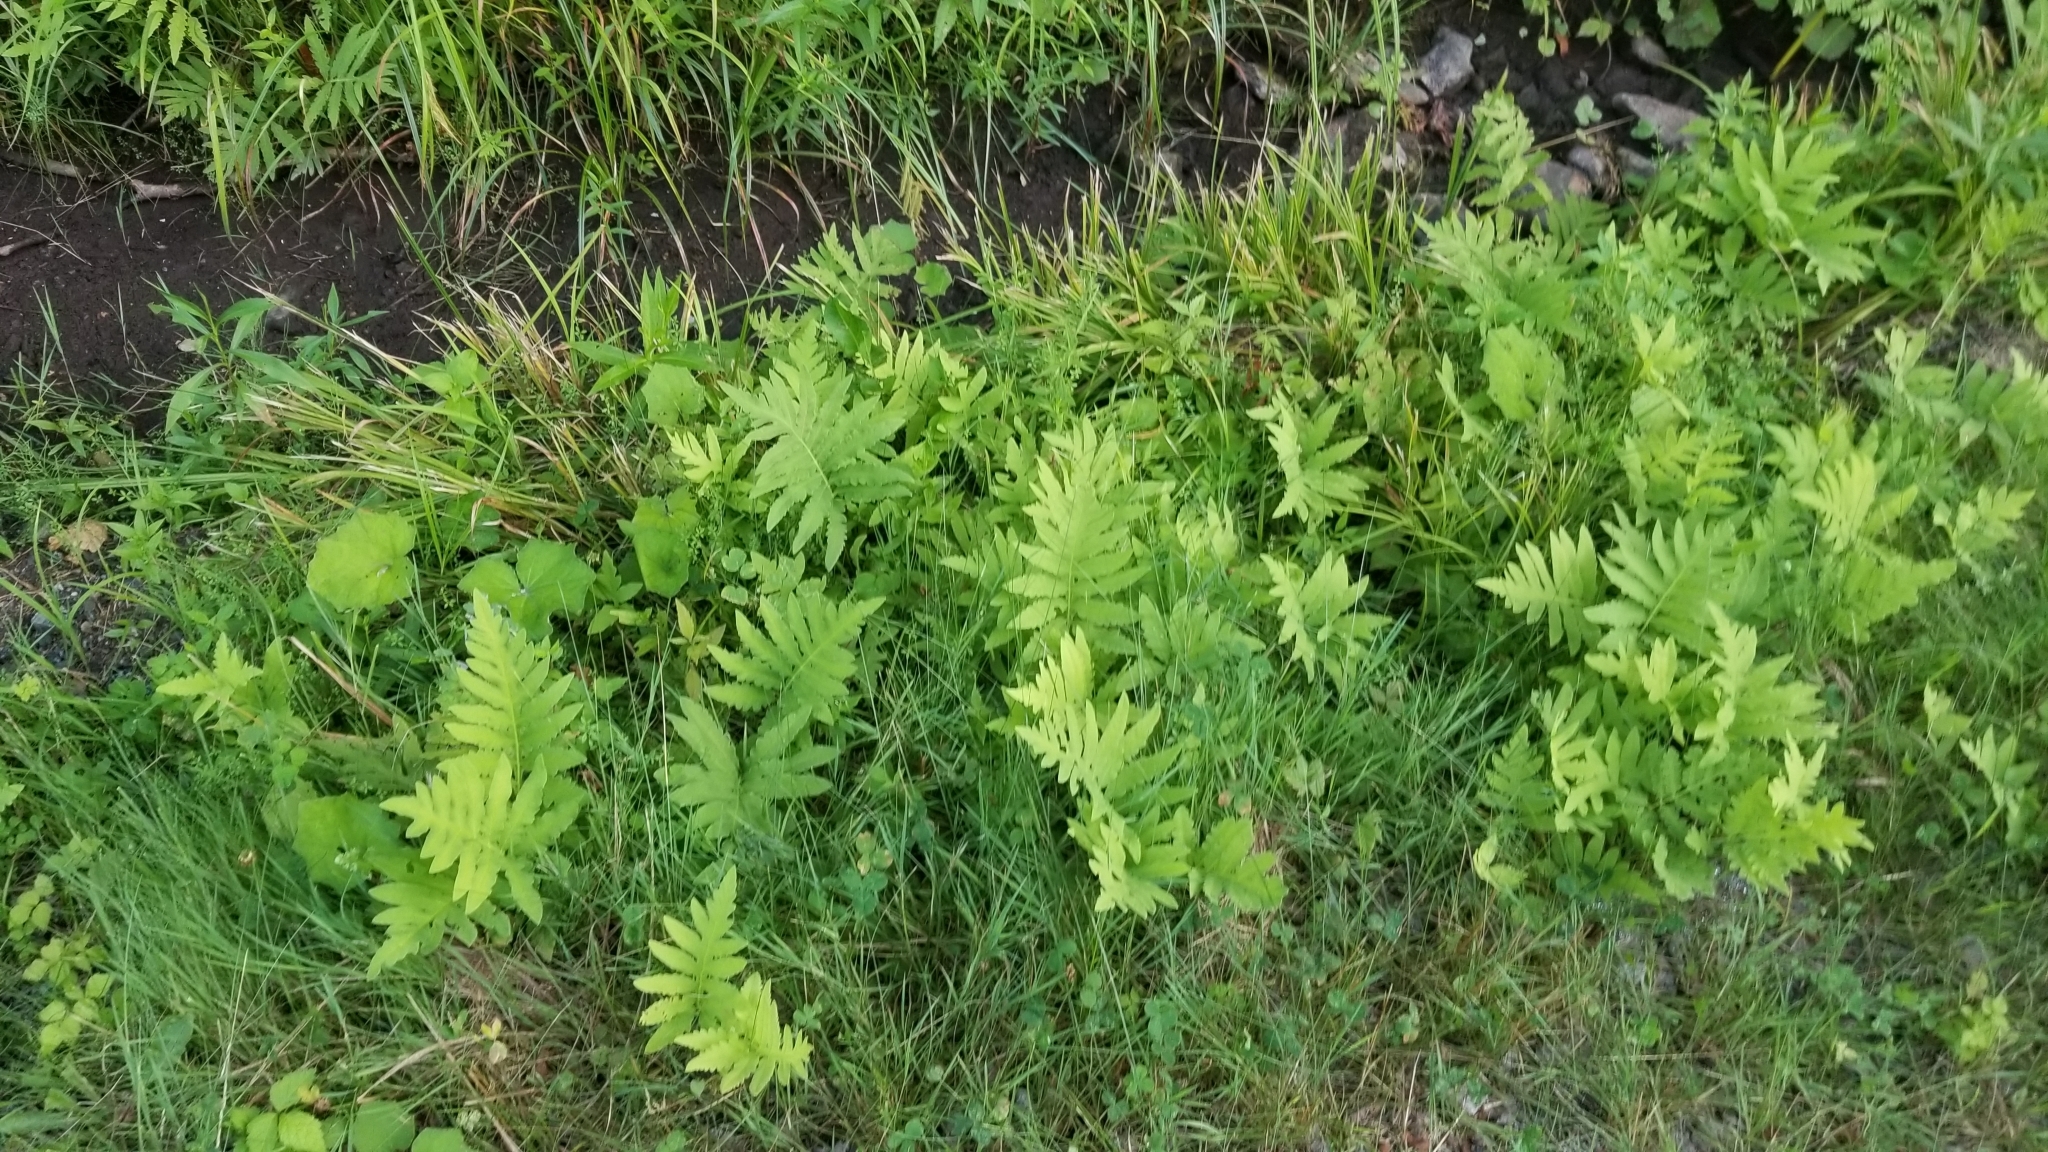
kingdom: Plantae
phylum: Tracheophyta
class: Polypodiopsida
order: Polypodiales
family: Onocleaceae
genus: Onoclea
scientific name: Onoclea sensibilis
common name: Sensitive fern
